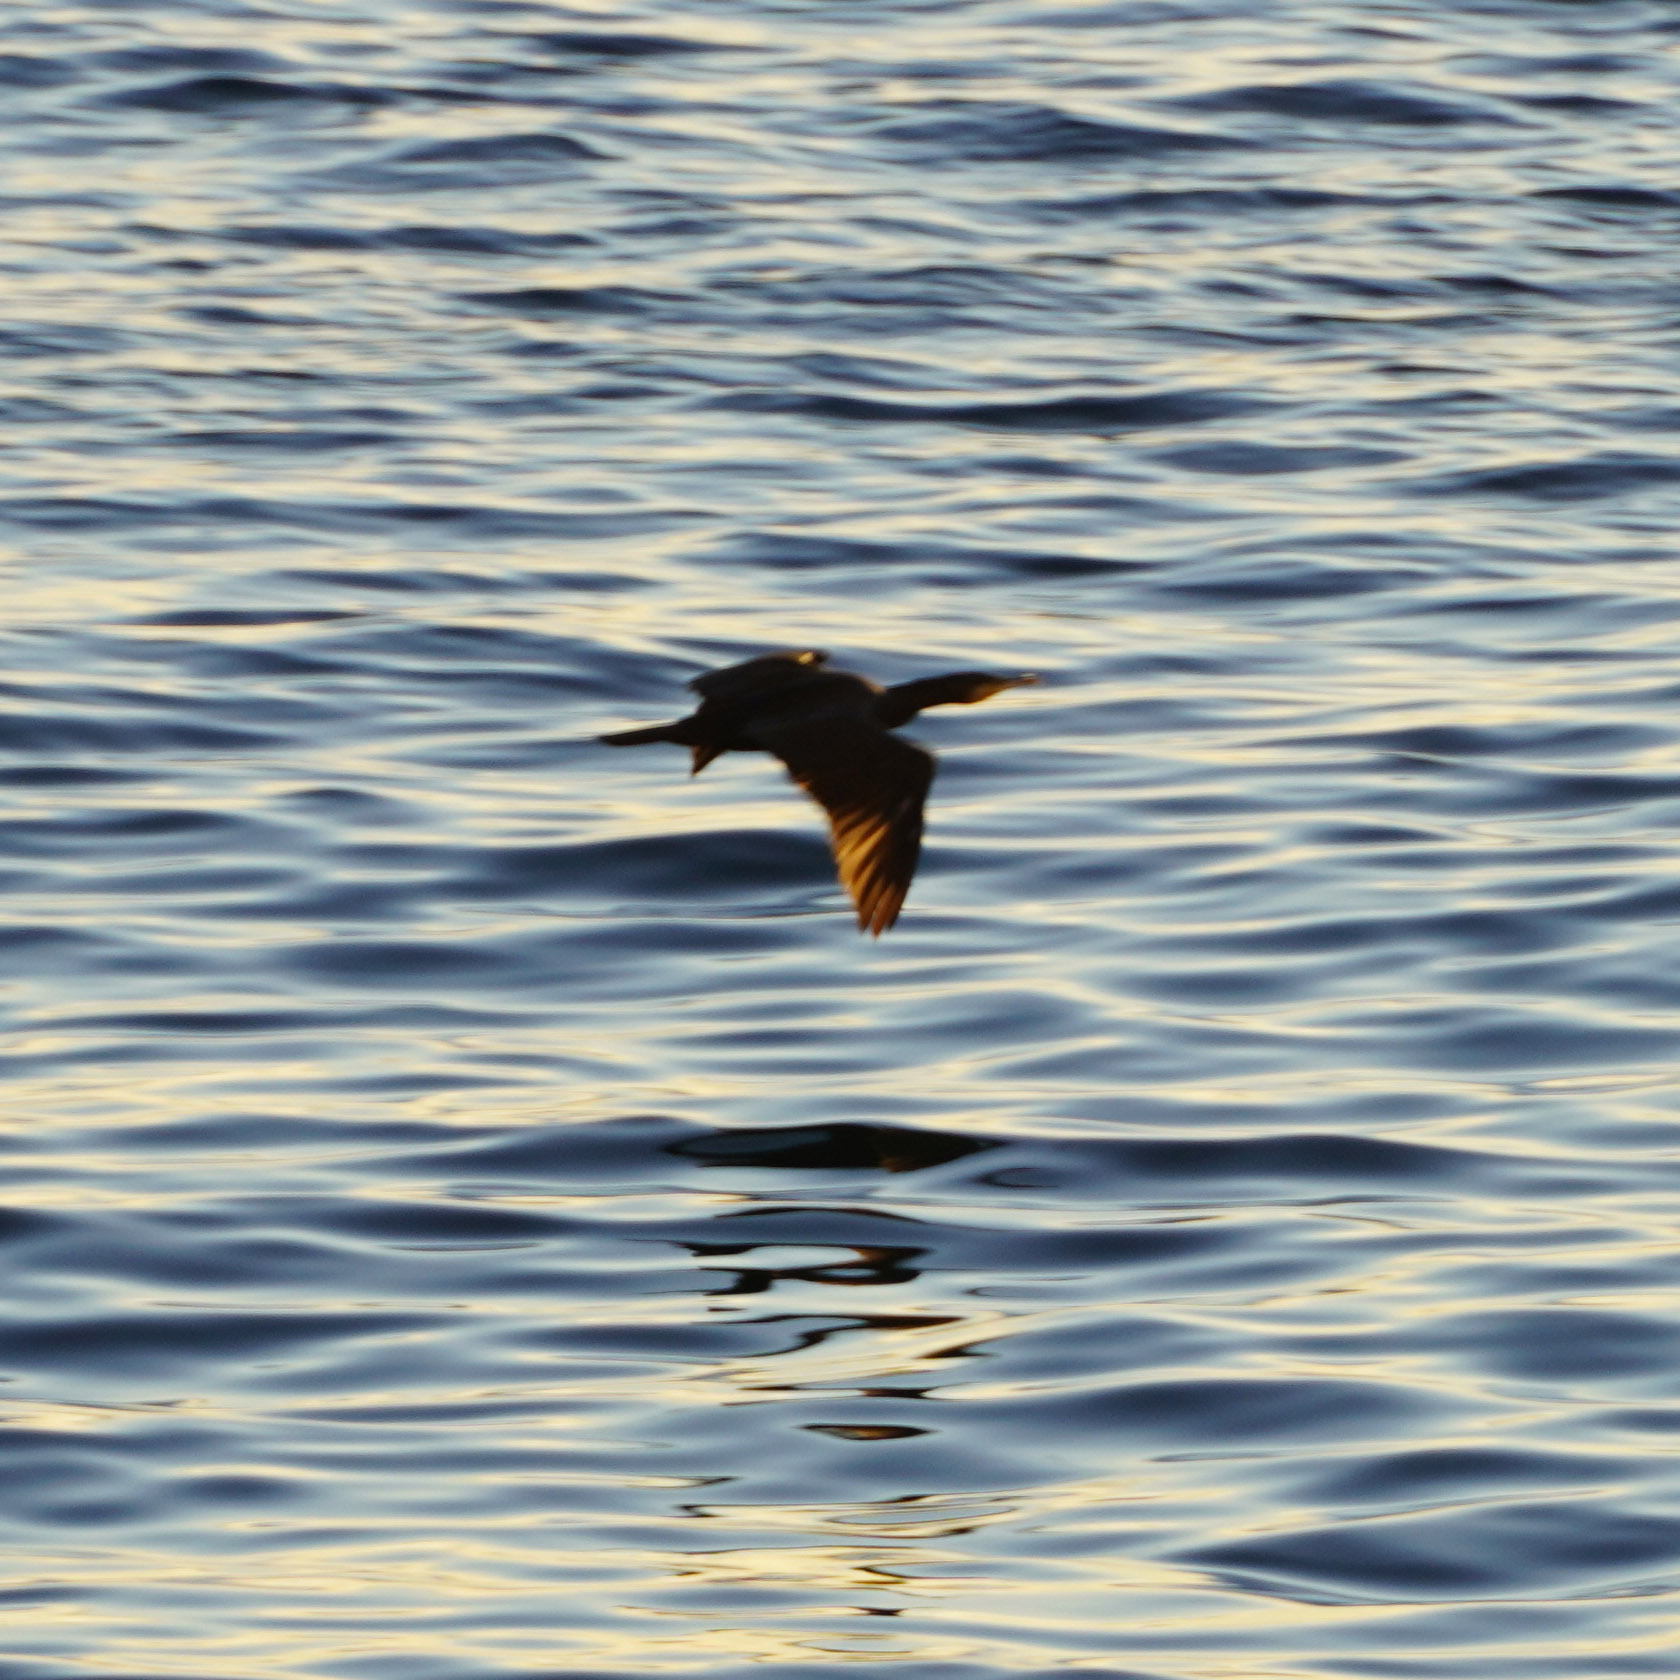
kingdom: Animalia
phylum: Chordata
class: Aves
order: Suliformes
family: Phalacrocoracidae
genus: Phalacrocorax
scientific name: Phalacrocorax carbo
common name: Great cormorant
